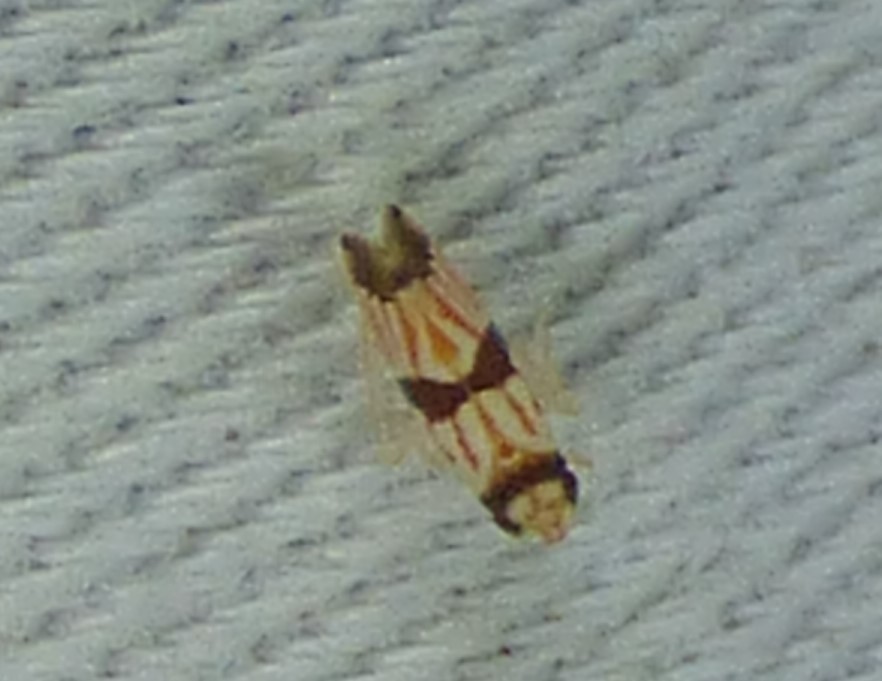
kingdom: Animalia
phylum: Arthropoda
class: Insecta
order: Hemiptera
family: Cicadellidae
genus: Erythroneura
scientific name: Erythroneura calycula
